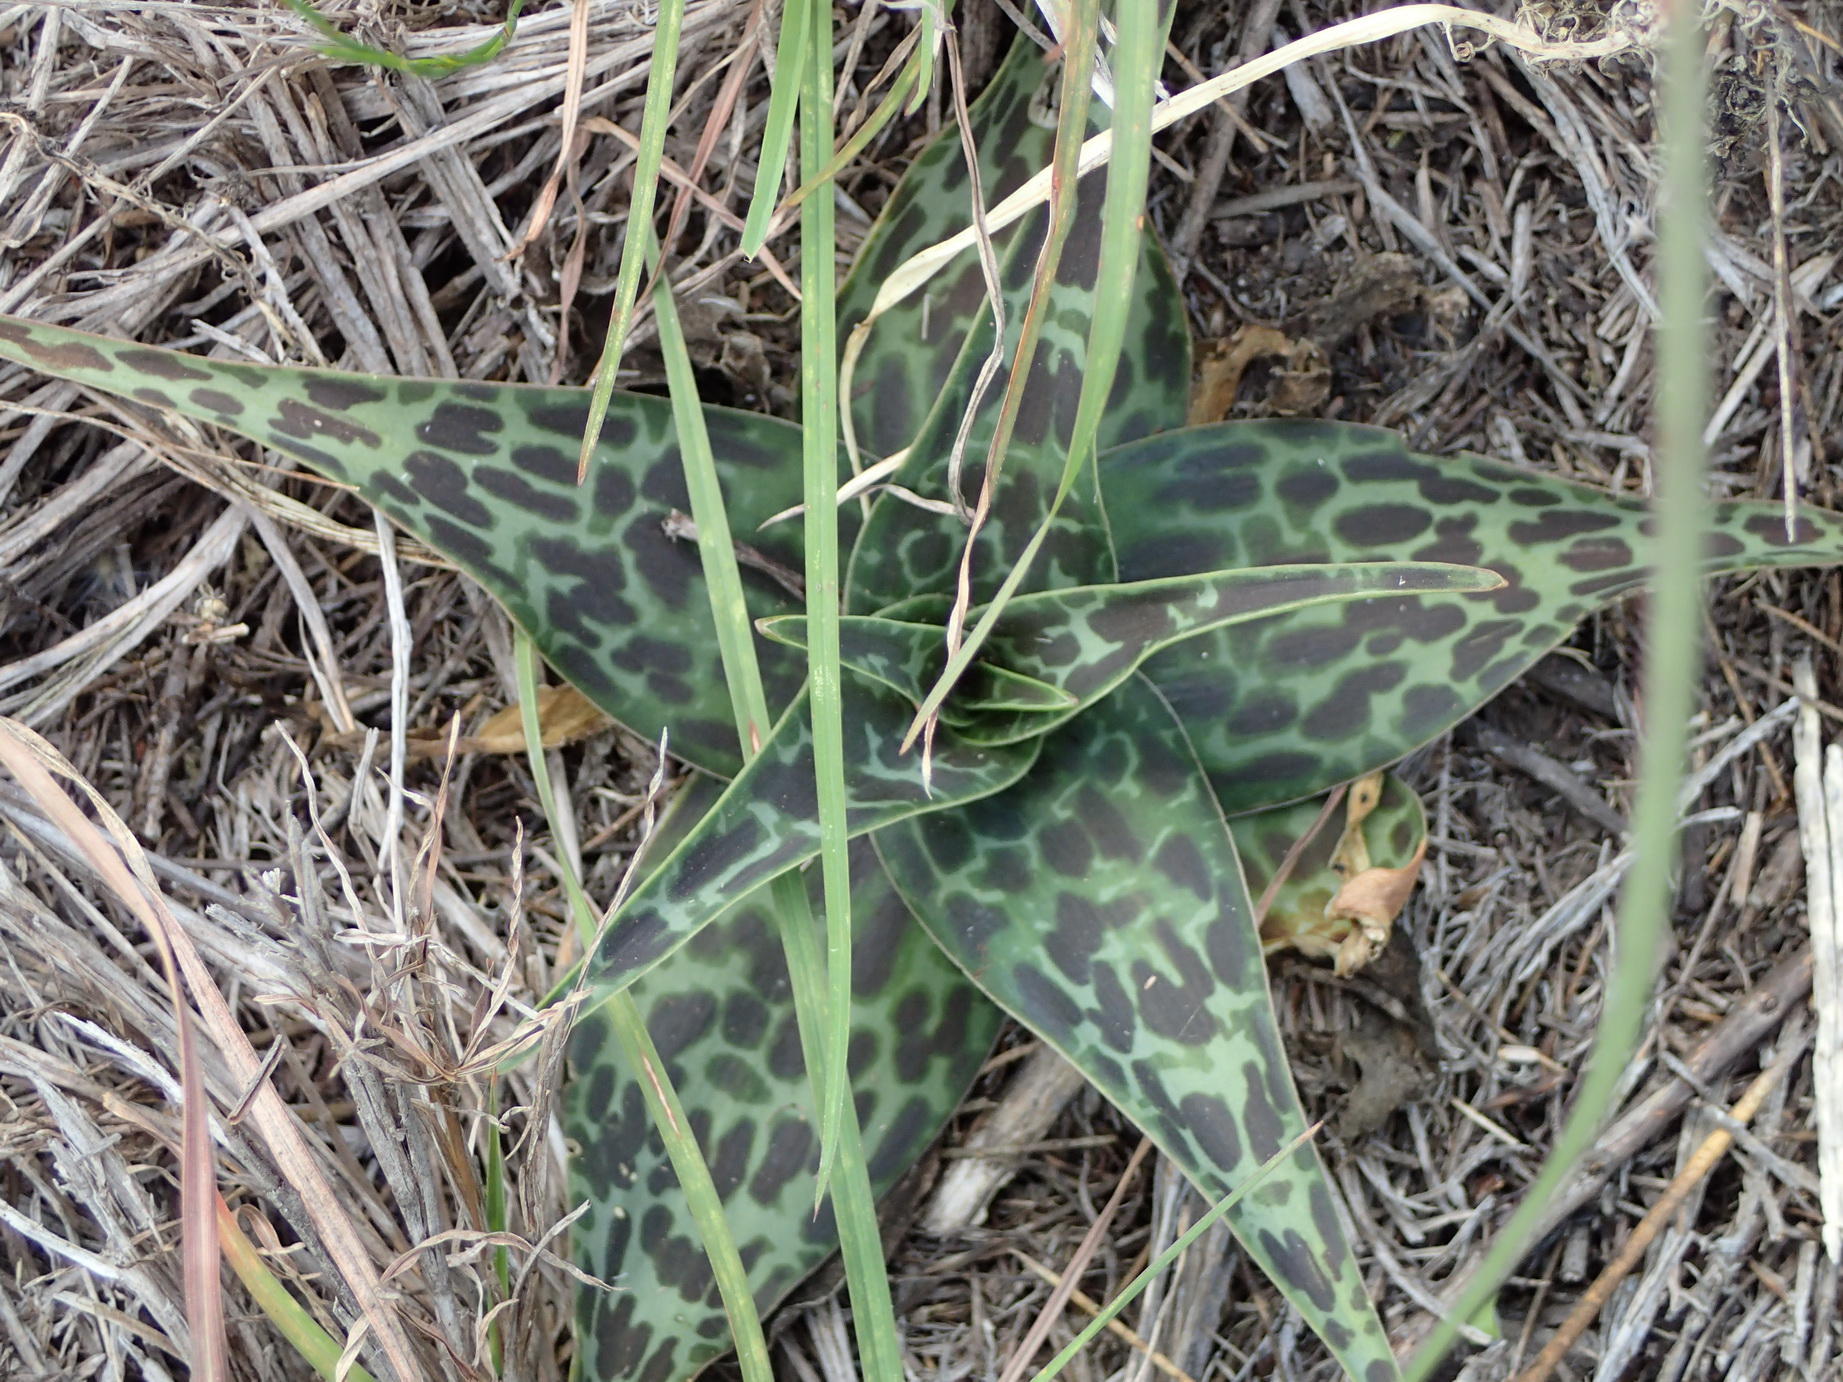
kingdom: Plantae
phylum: Tracheophyta
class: Liliopsida
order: Asparagales
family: Asparagaceae
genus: Ledebouria
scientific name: Ledebouria revoluta
